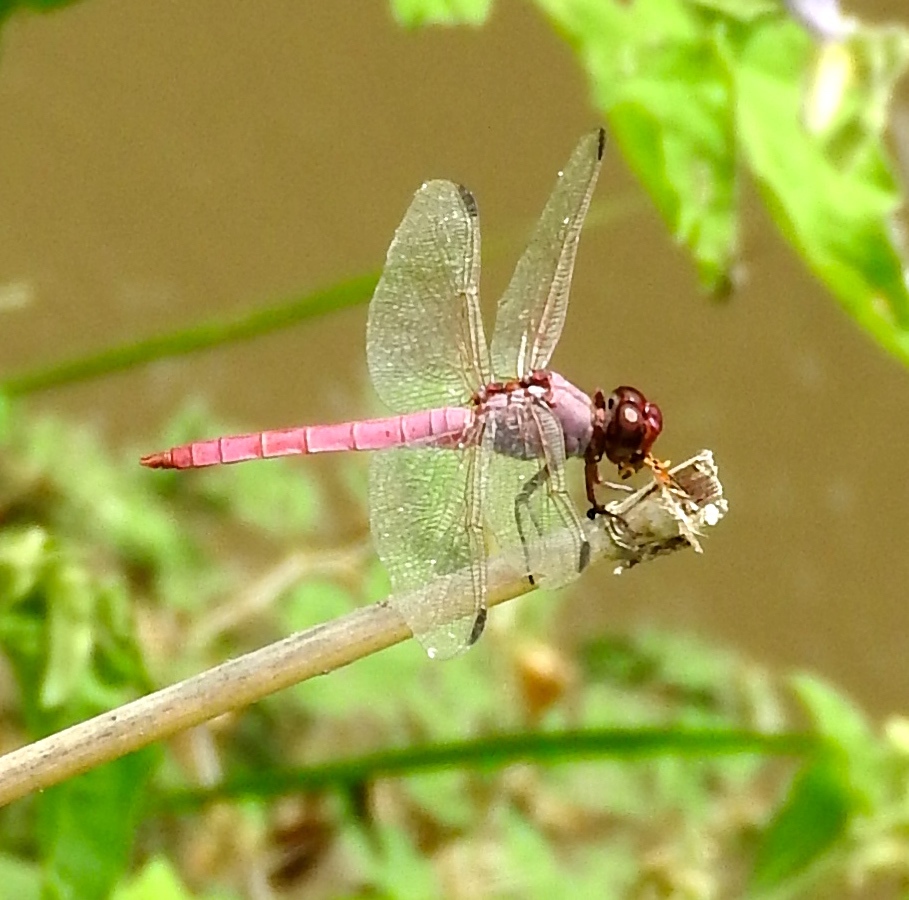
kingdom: Animalia
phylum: Arthropoda
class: Insecta
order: Odonata
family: Libellulidae
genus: Orthemis
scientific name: Orthemis ferruginea
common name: Roseate skimmer
